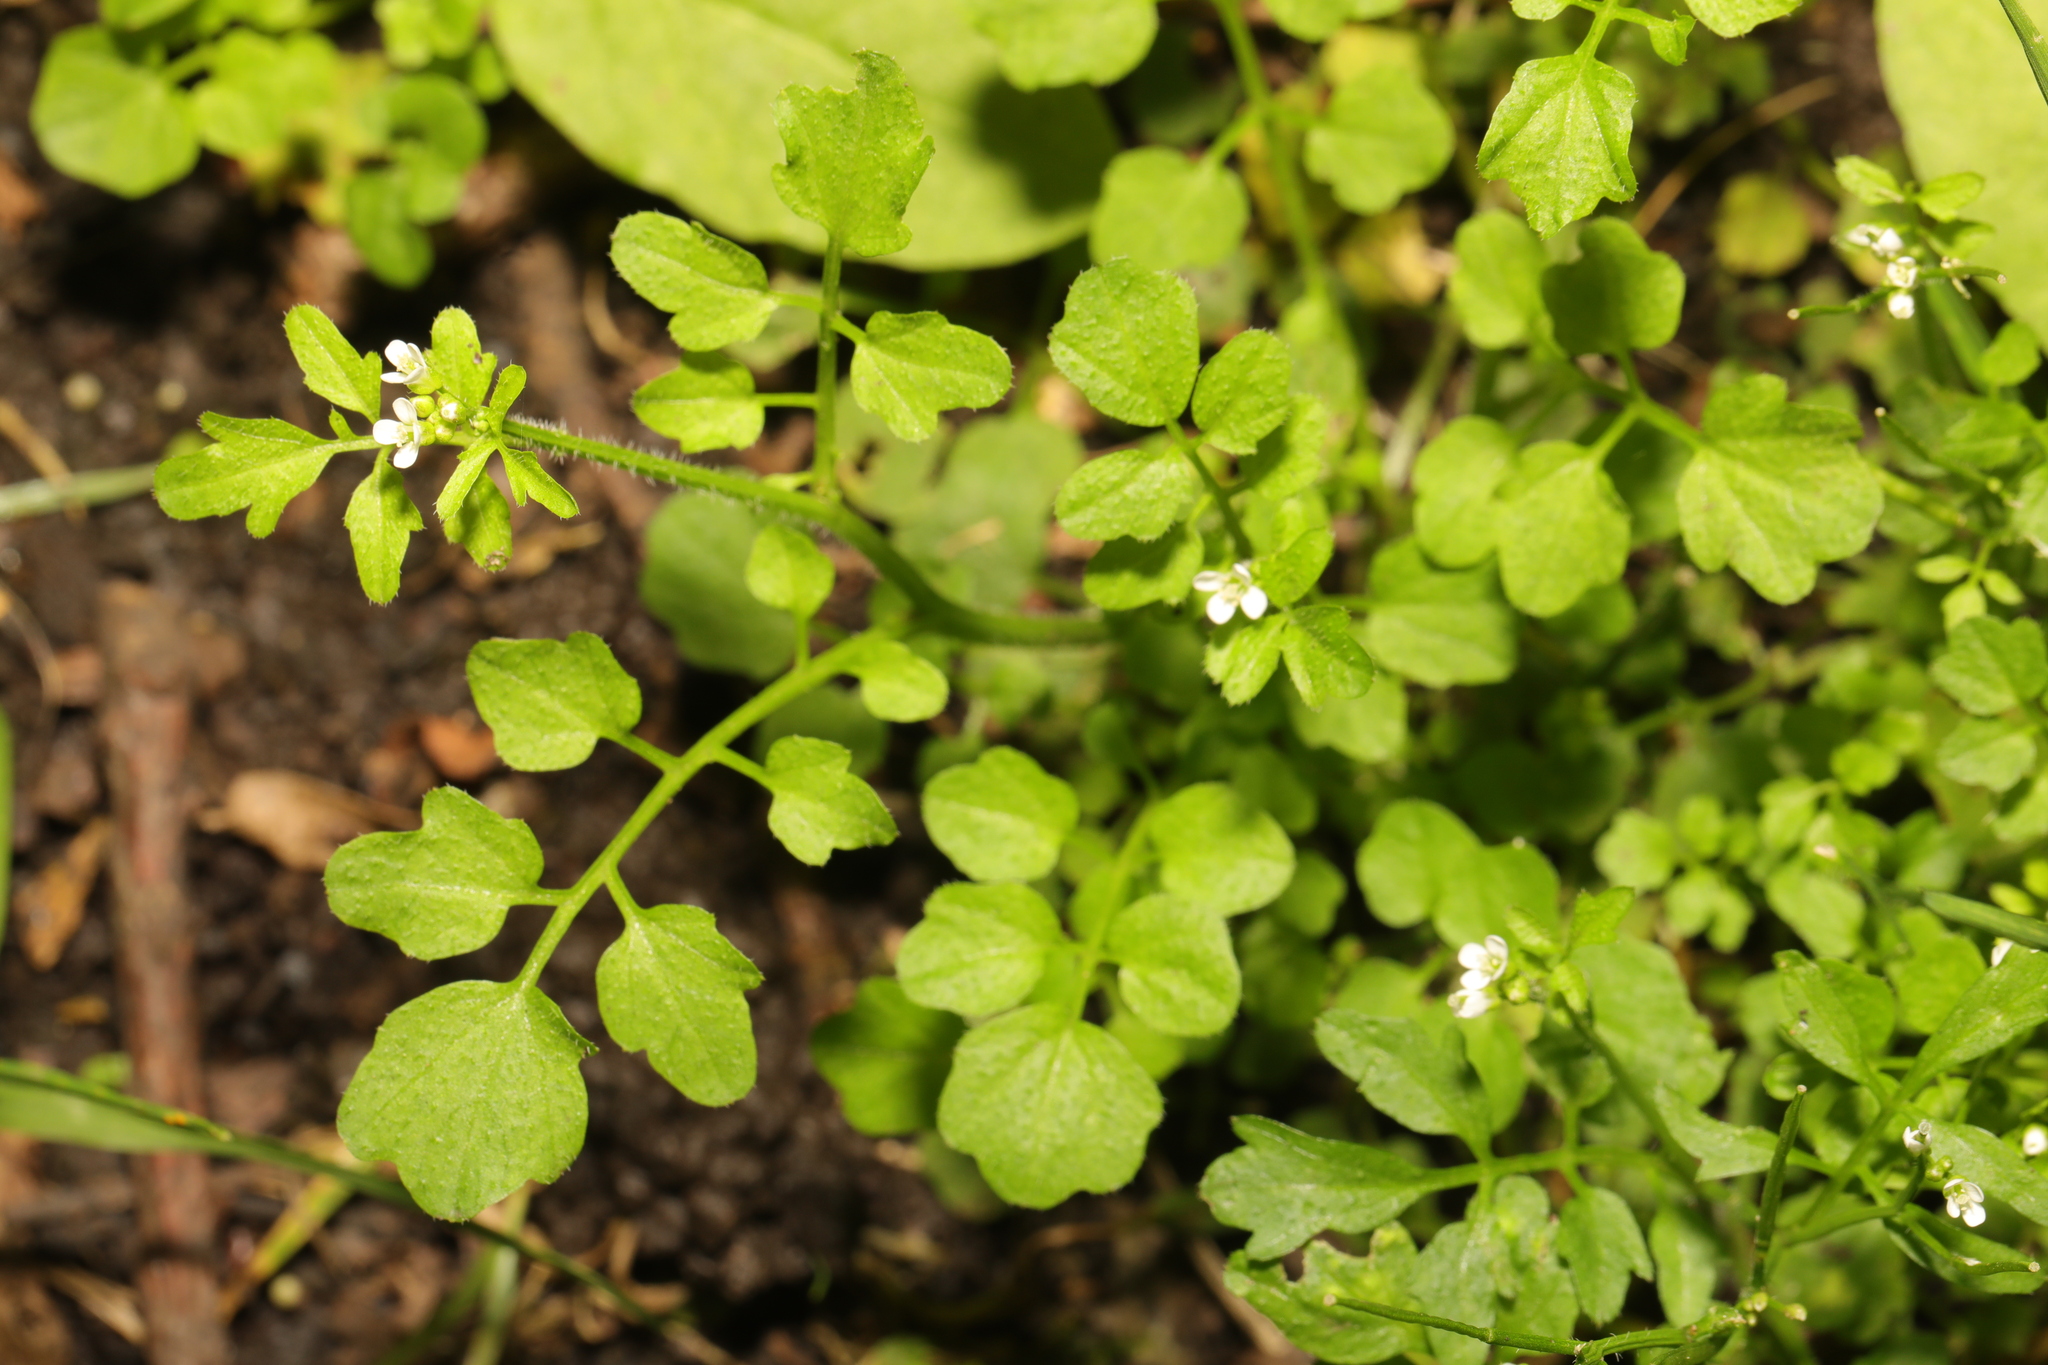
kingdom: Plantae
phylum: Tracheophyta
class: Magnoliopsida
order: Brassicales
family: Brassicaceae
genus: Cardamine
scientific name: Cardamine flexuosa
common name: Woodland bittercress
